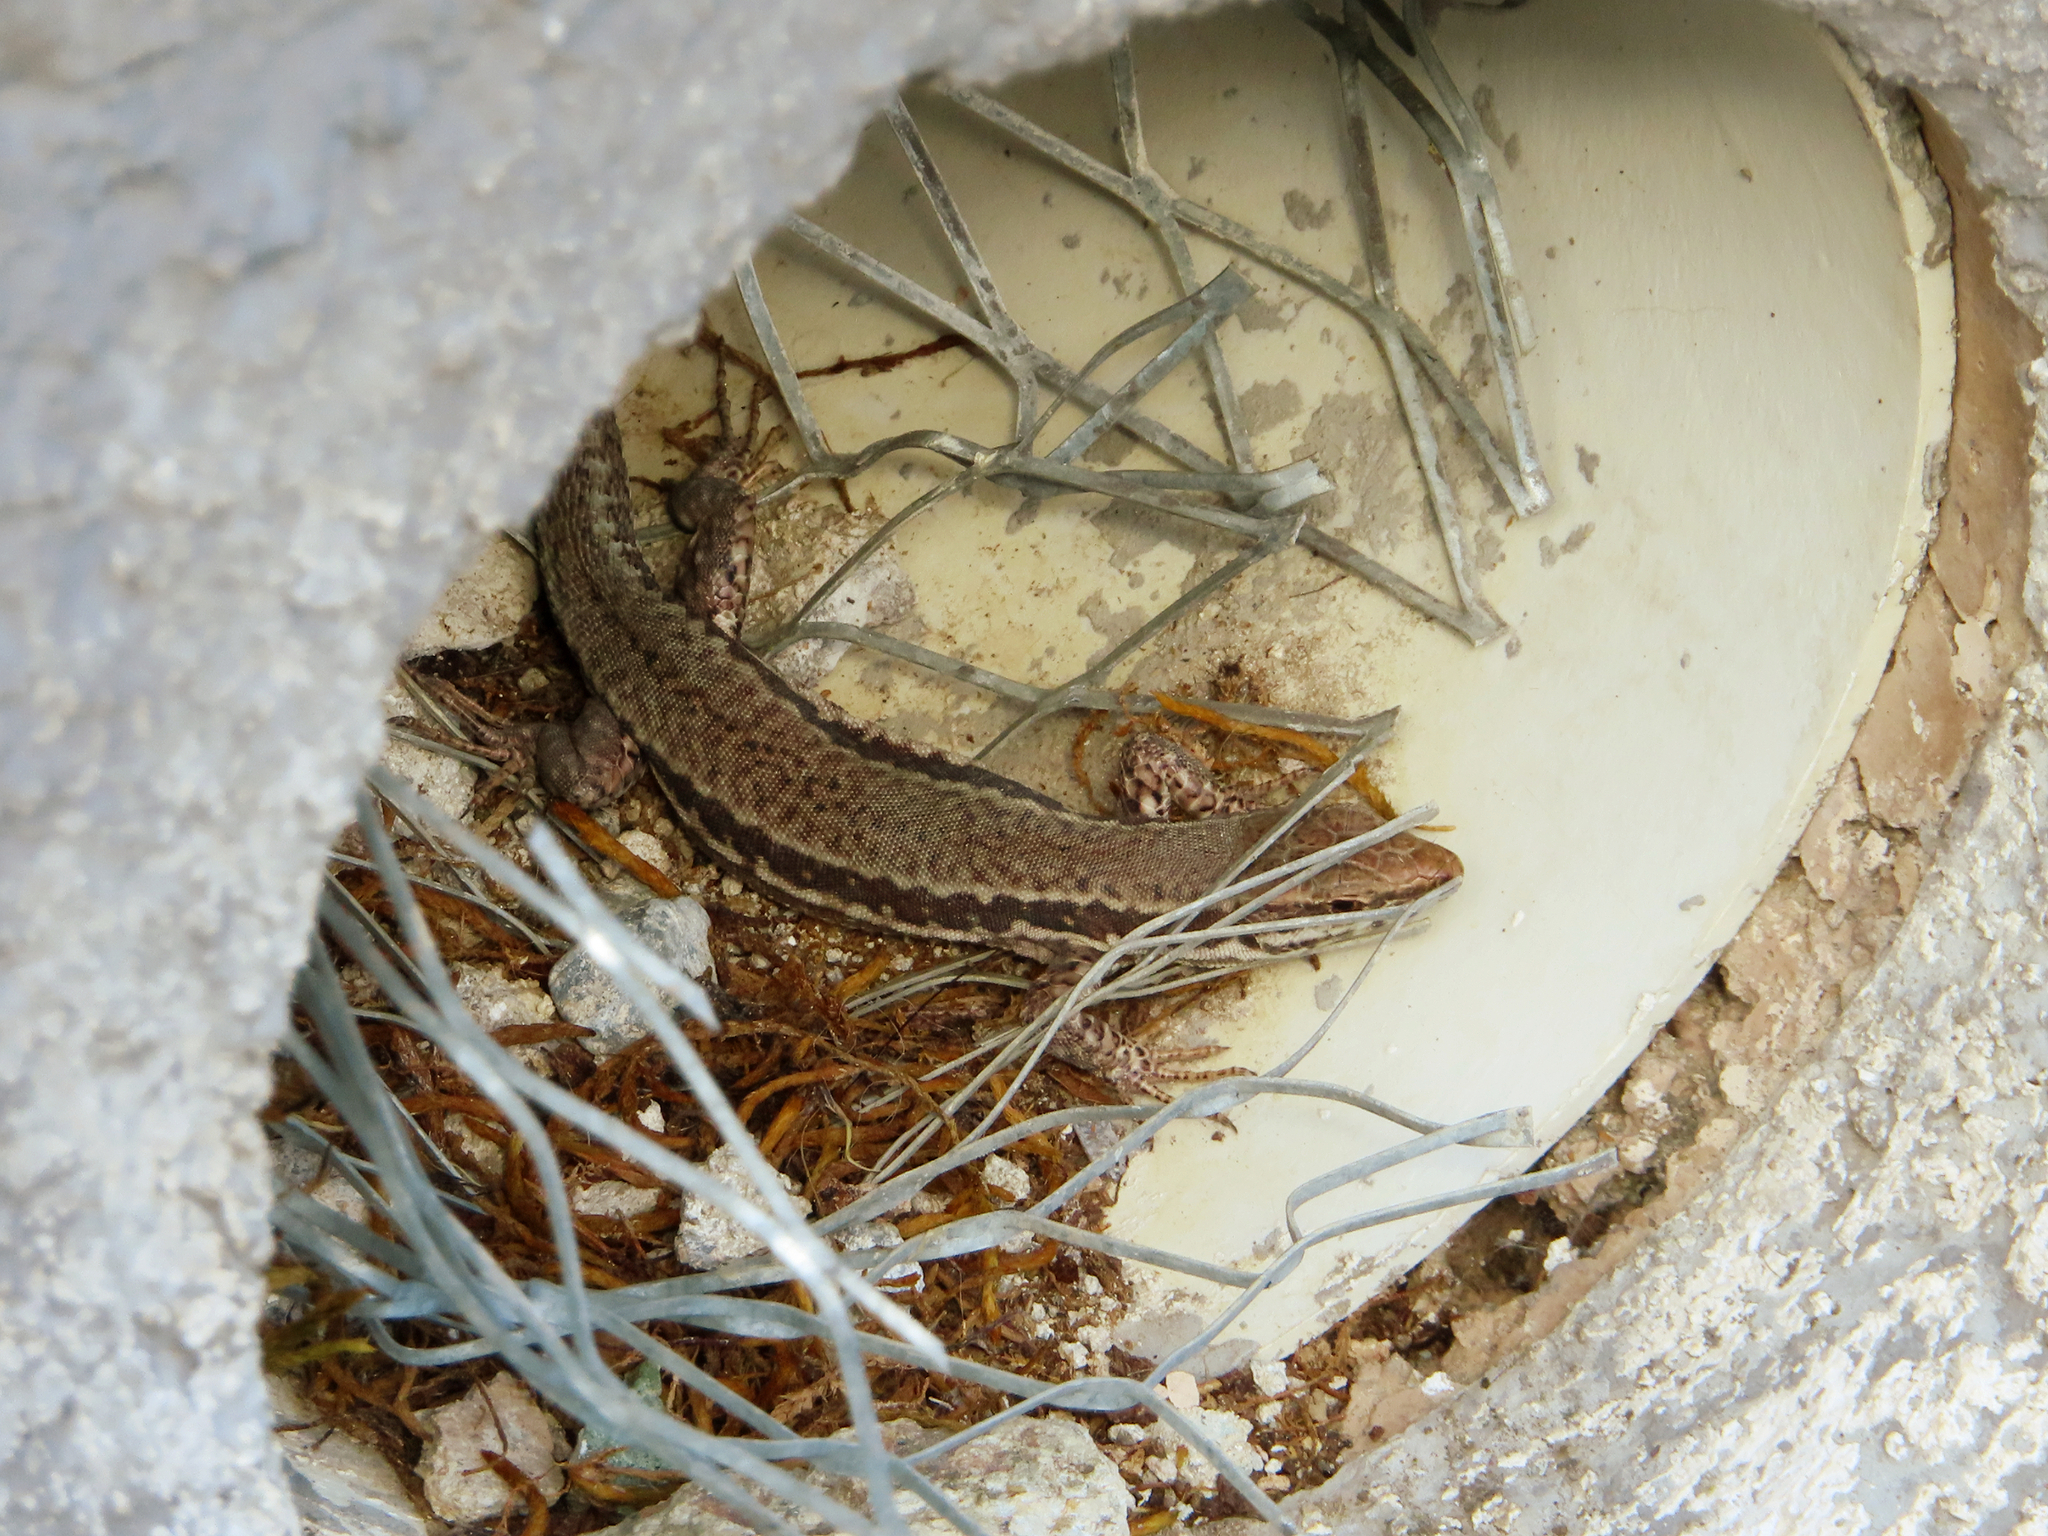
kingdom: Animalia
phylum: Chordata
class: Squamata
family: Lacertidae
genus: Podarcis
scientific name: Podarcis muralis
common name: Common wall lizard
